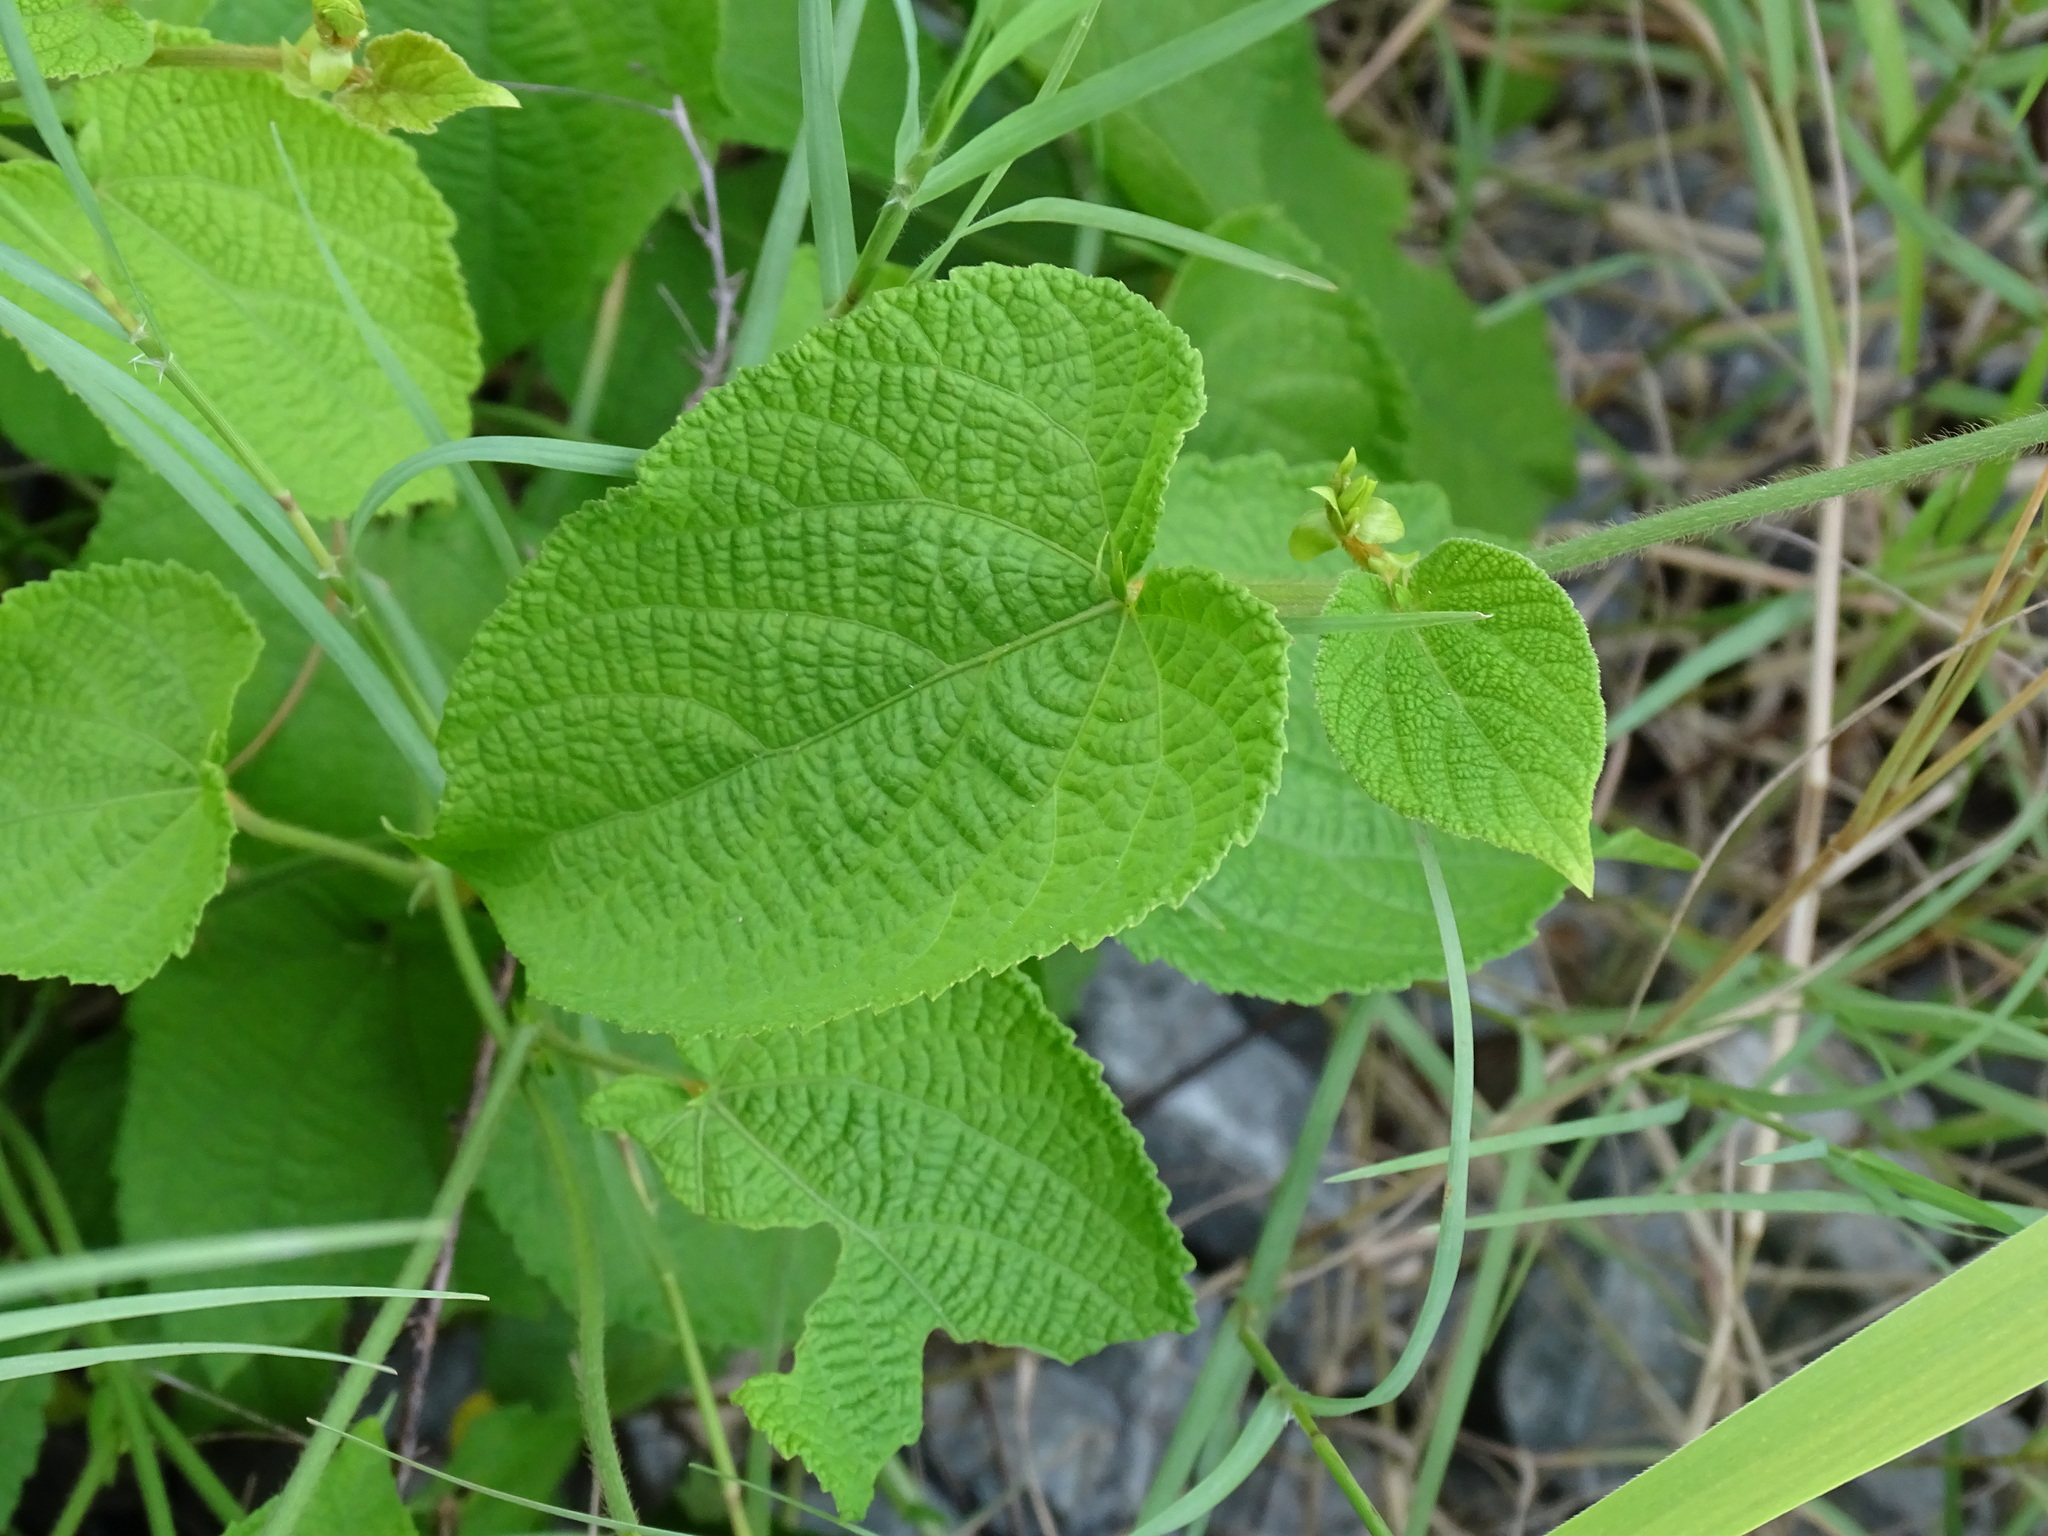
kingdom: Plantae
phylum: Tracheophyta
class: Magnoliopsida
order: Malpighiales
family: Euphorbiaceae
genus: Dalechampia
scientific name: Dalechampia scandens
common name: Spurgecreeper
